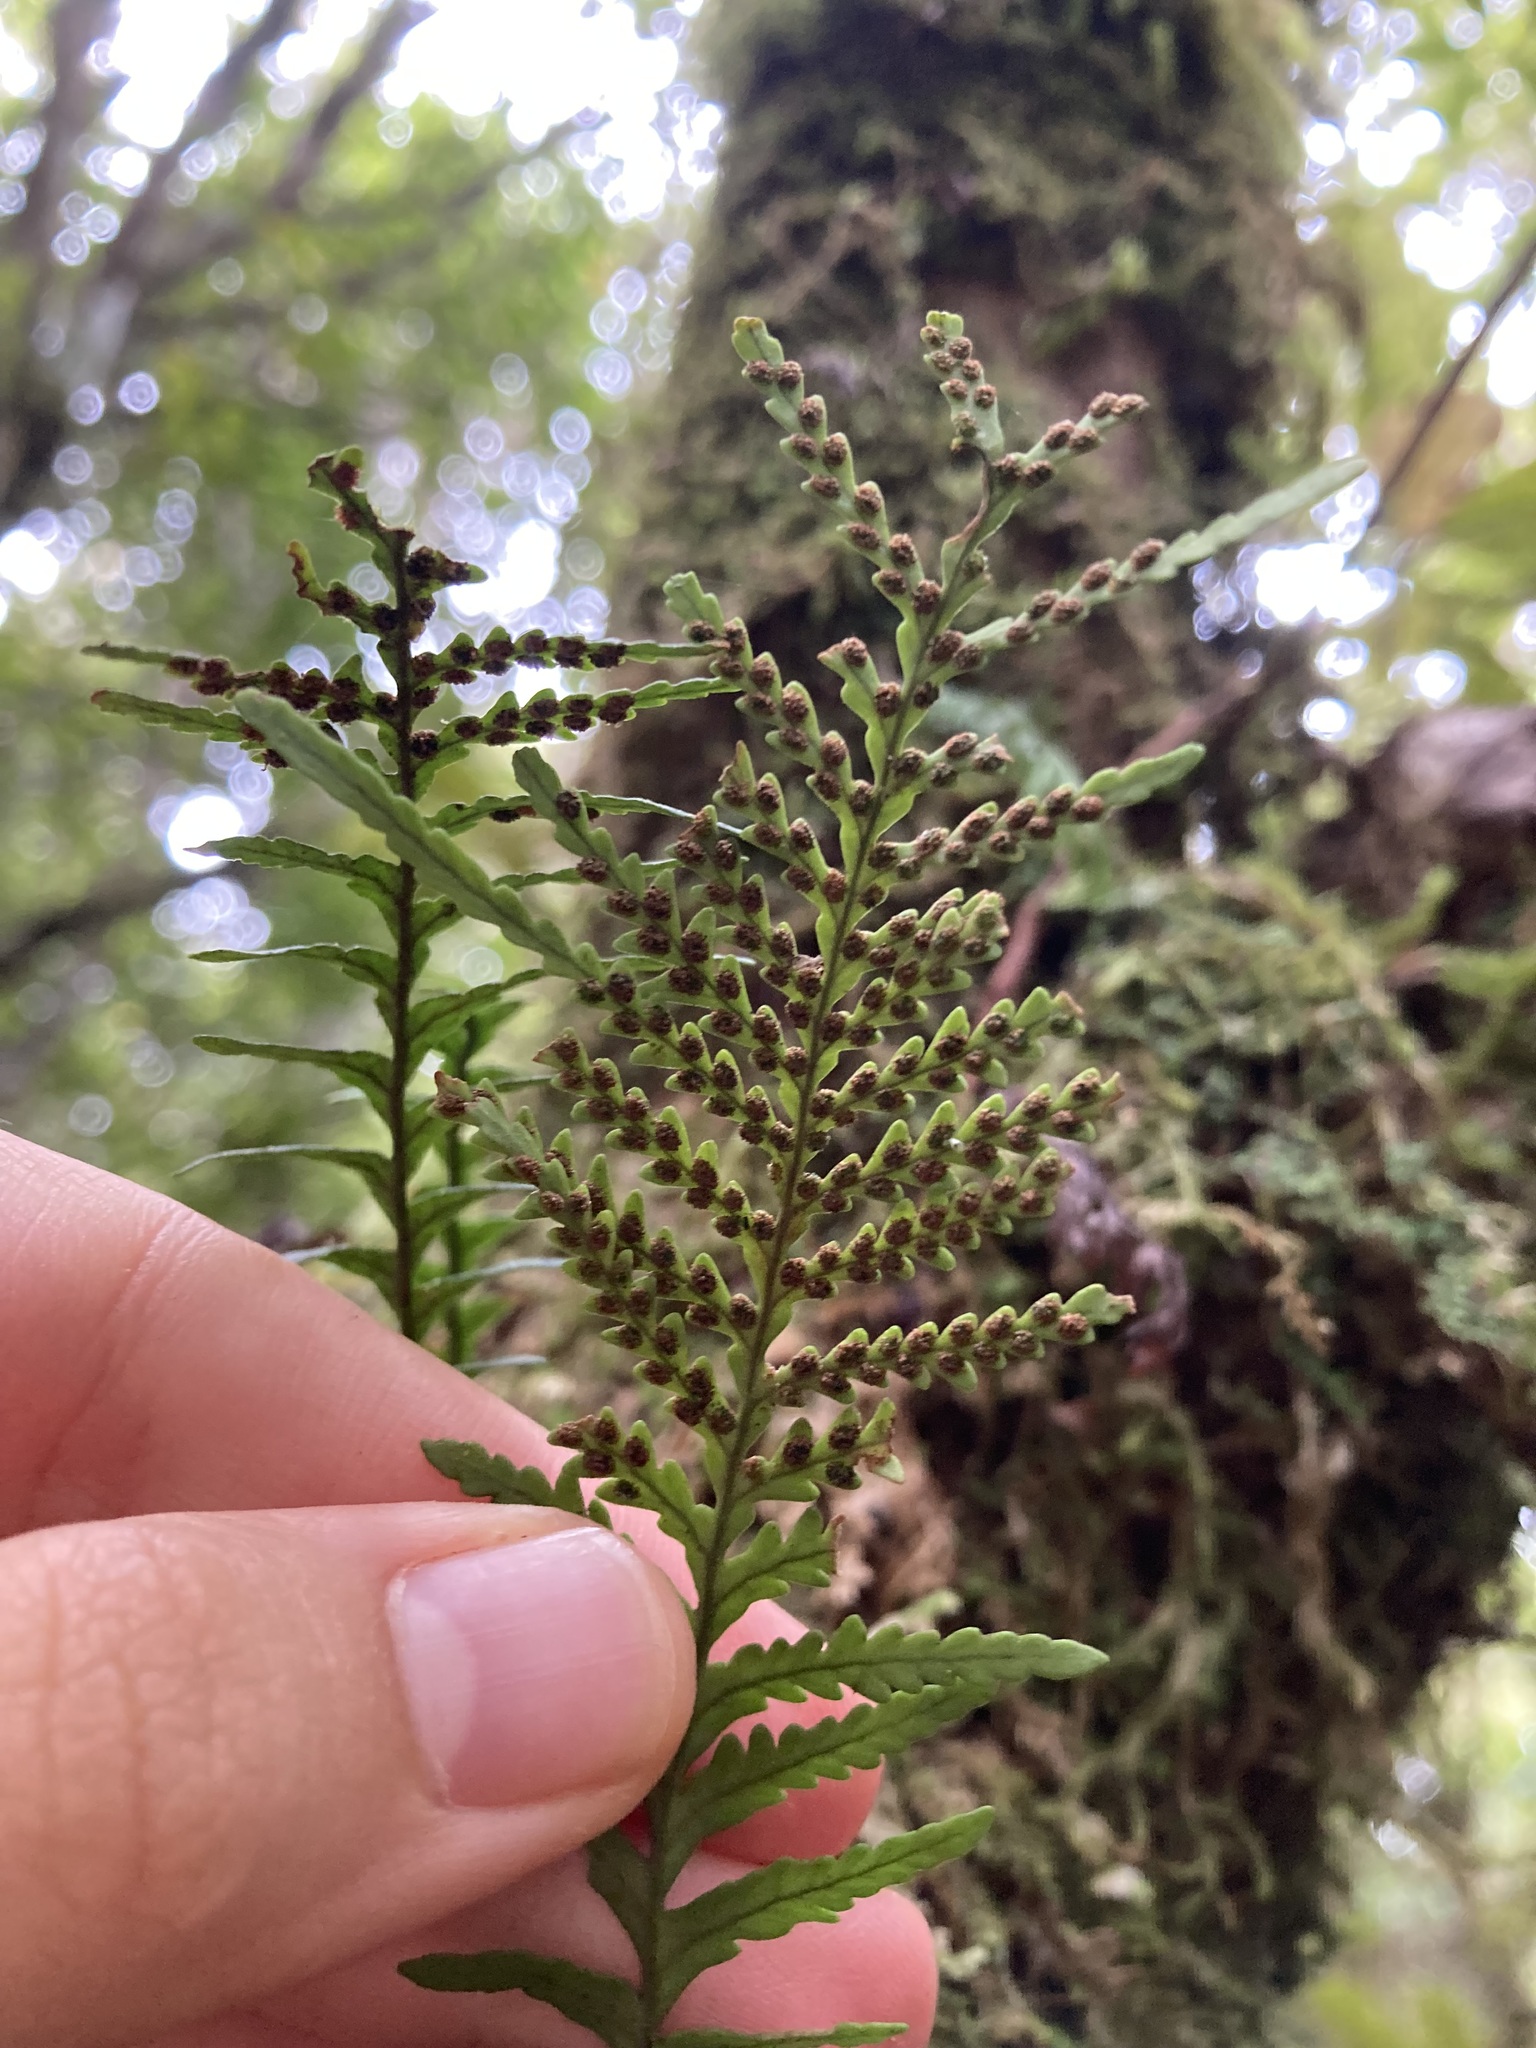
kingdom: Plantae
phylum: Tracheophyta
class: Polypodiopsida
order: Polypodiales
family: Polypodiaceae
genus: Notogrammitis
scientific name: Notogrammitis heterophylla
